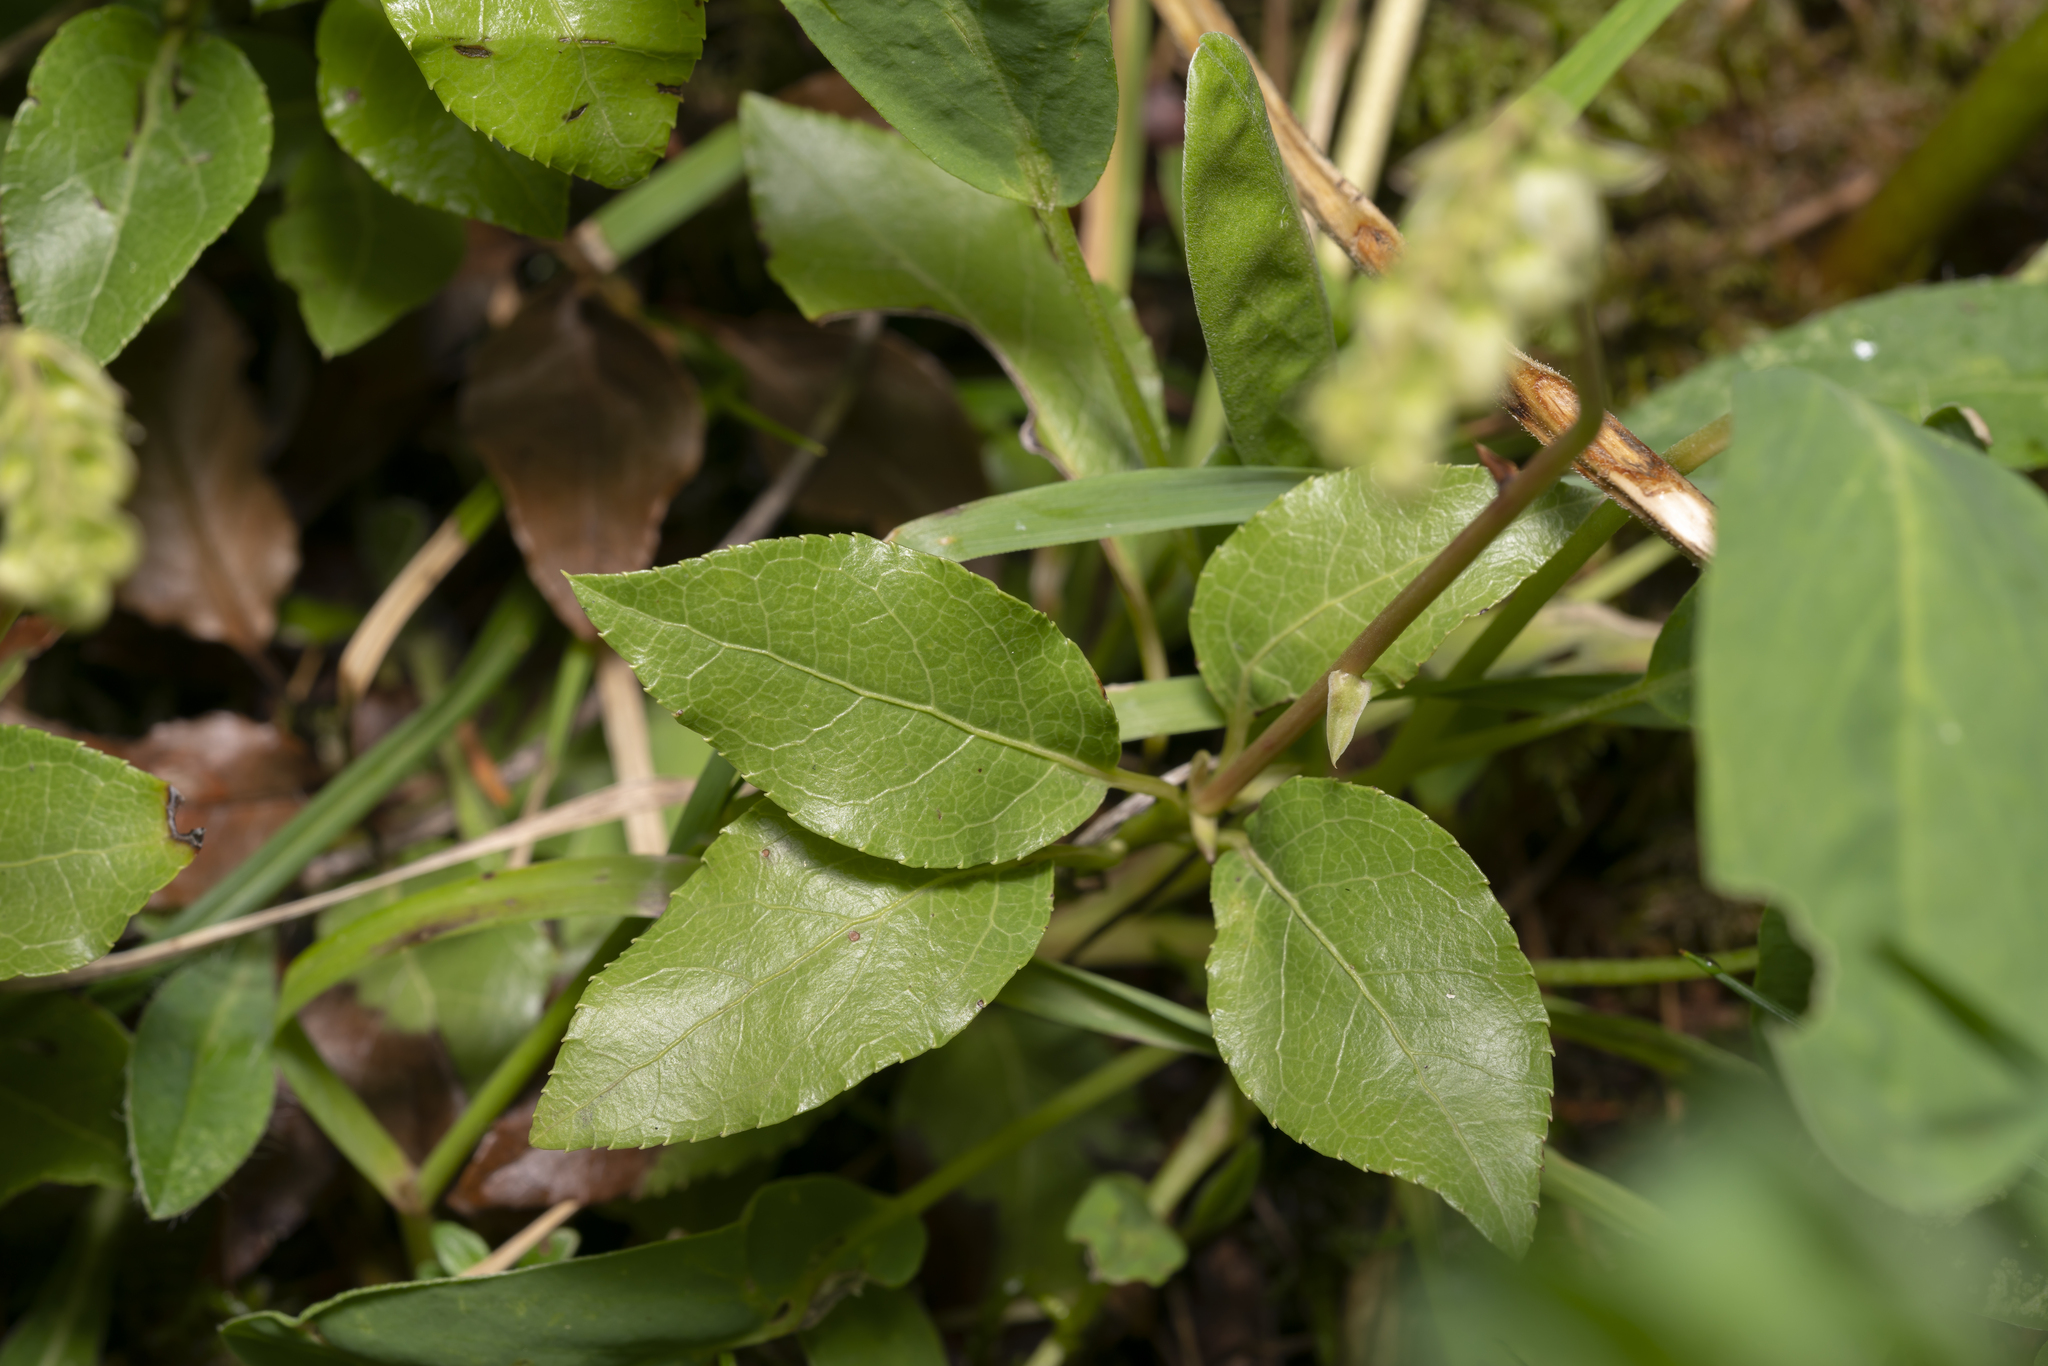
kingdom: Plantae
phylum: Tracheophyta
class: Magnoliopsida
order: Ericales
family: Ericaceae
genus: Orthilia
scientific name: Orthilia secunda
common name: One-sided orthilia
